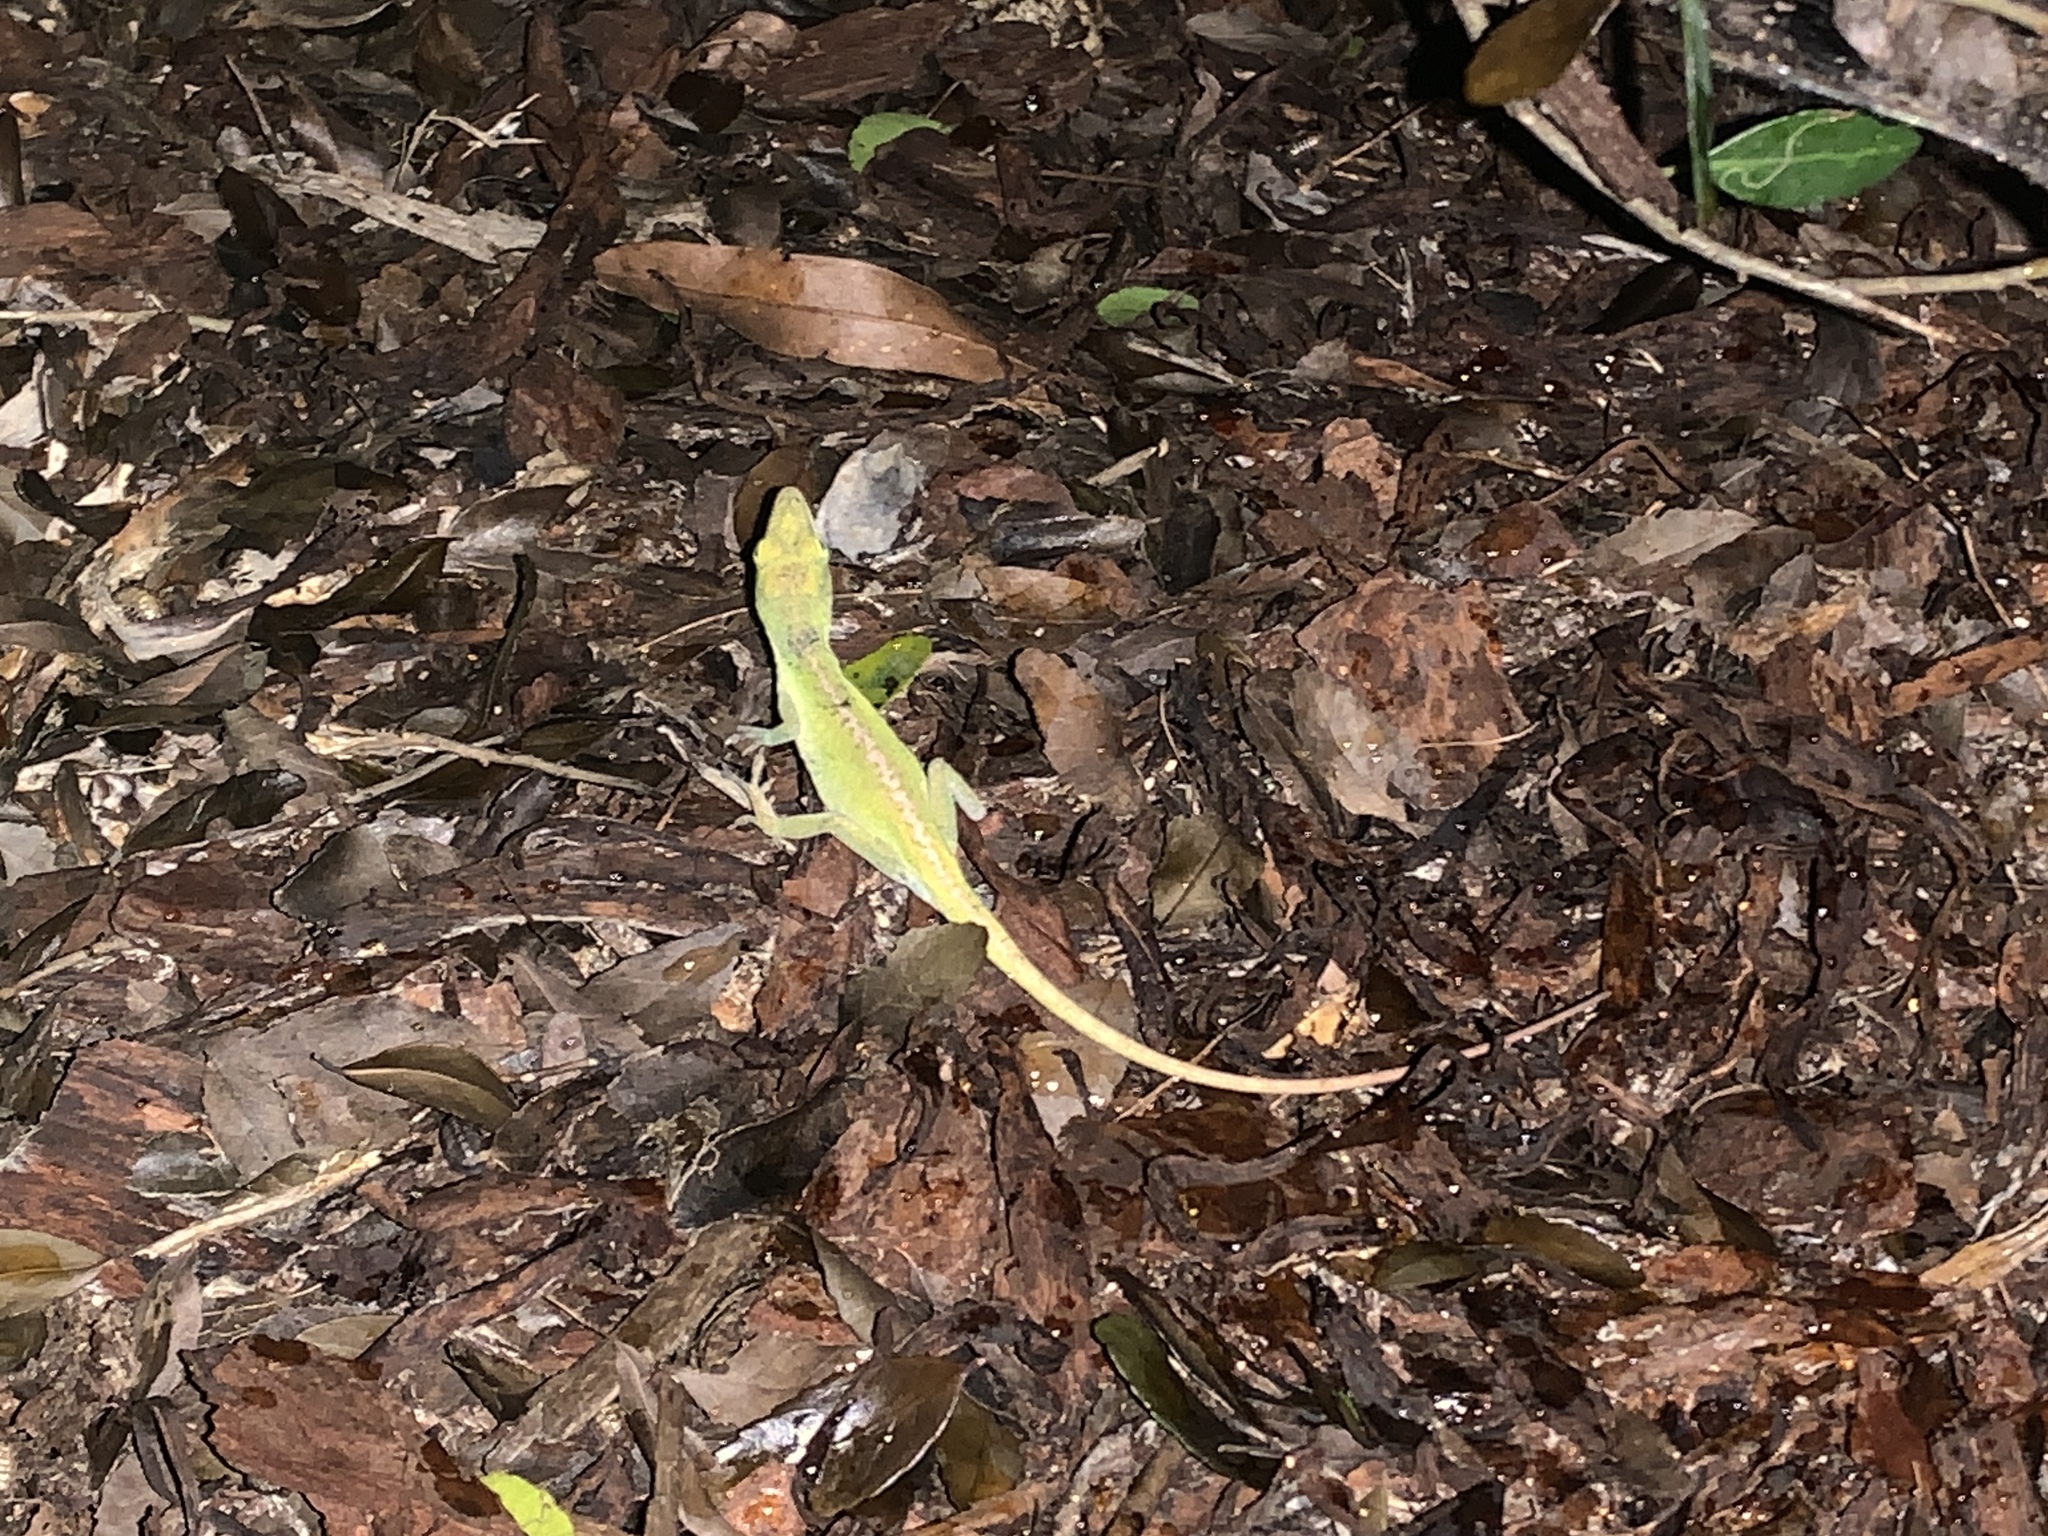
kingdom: Animalia
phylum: Chordata
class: Squamata
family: Dactyloidae
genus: Anolis
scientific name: Anolis carolinensis
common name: Green anole
